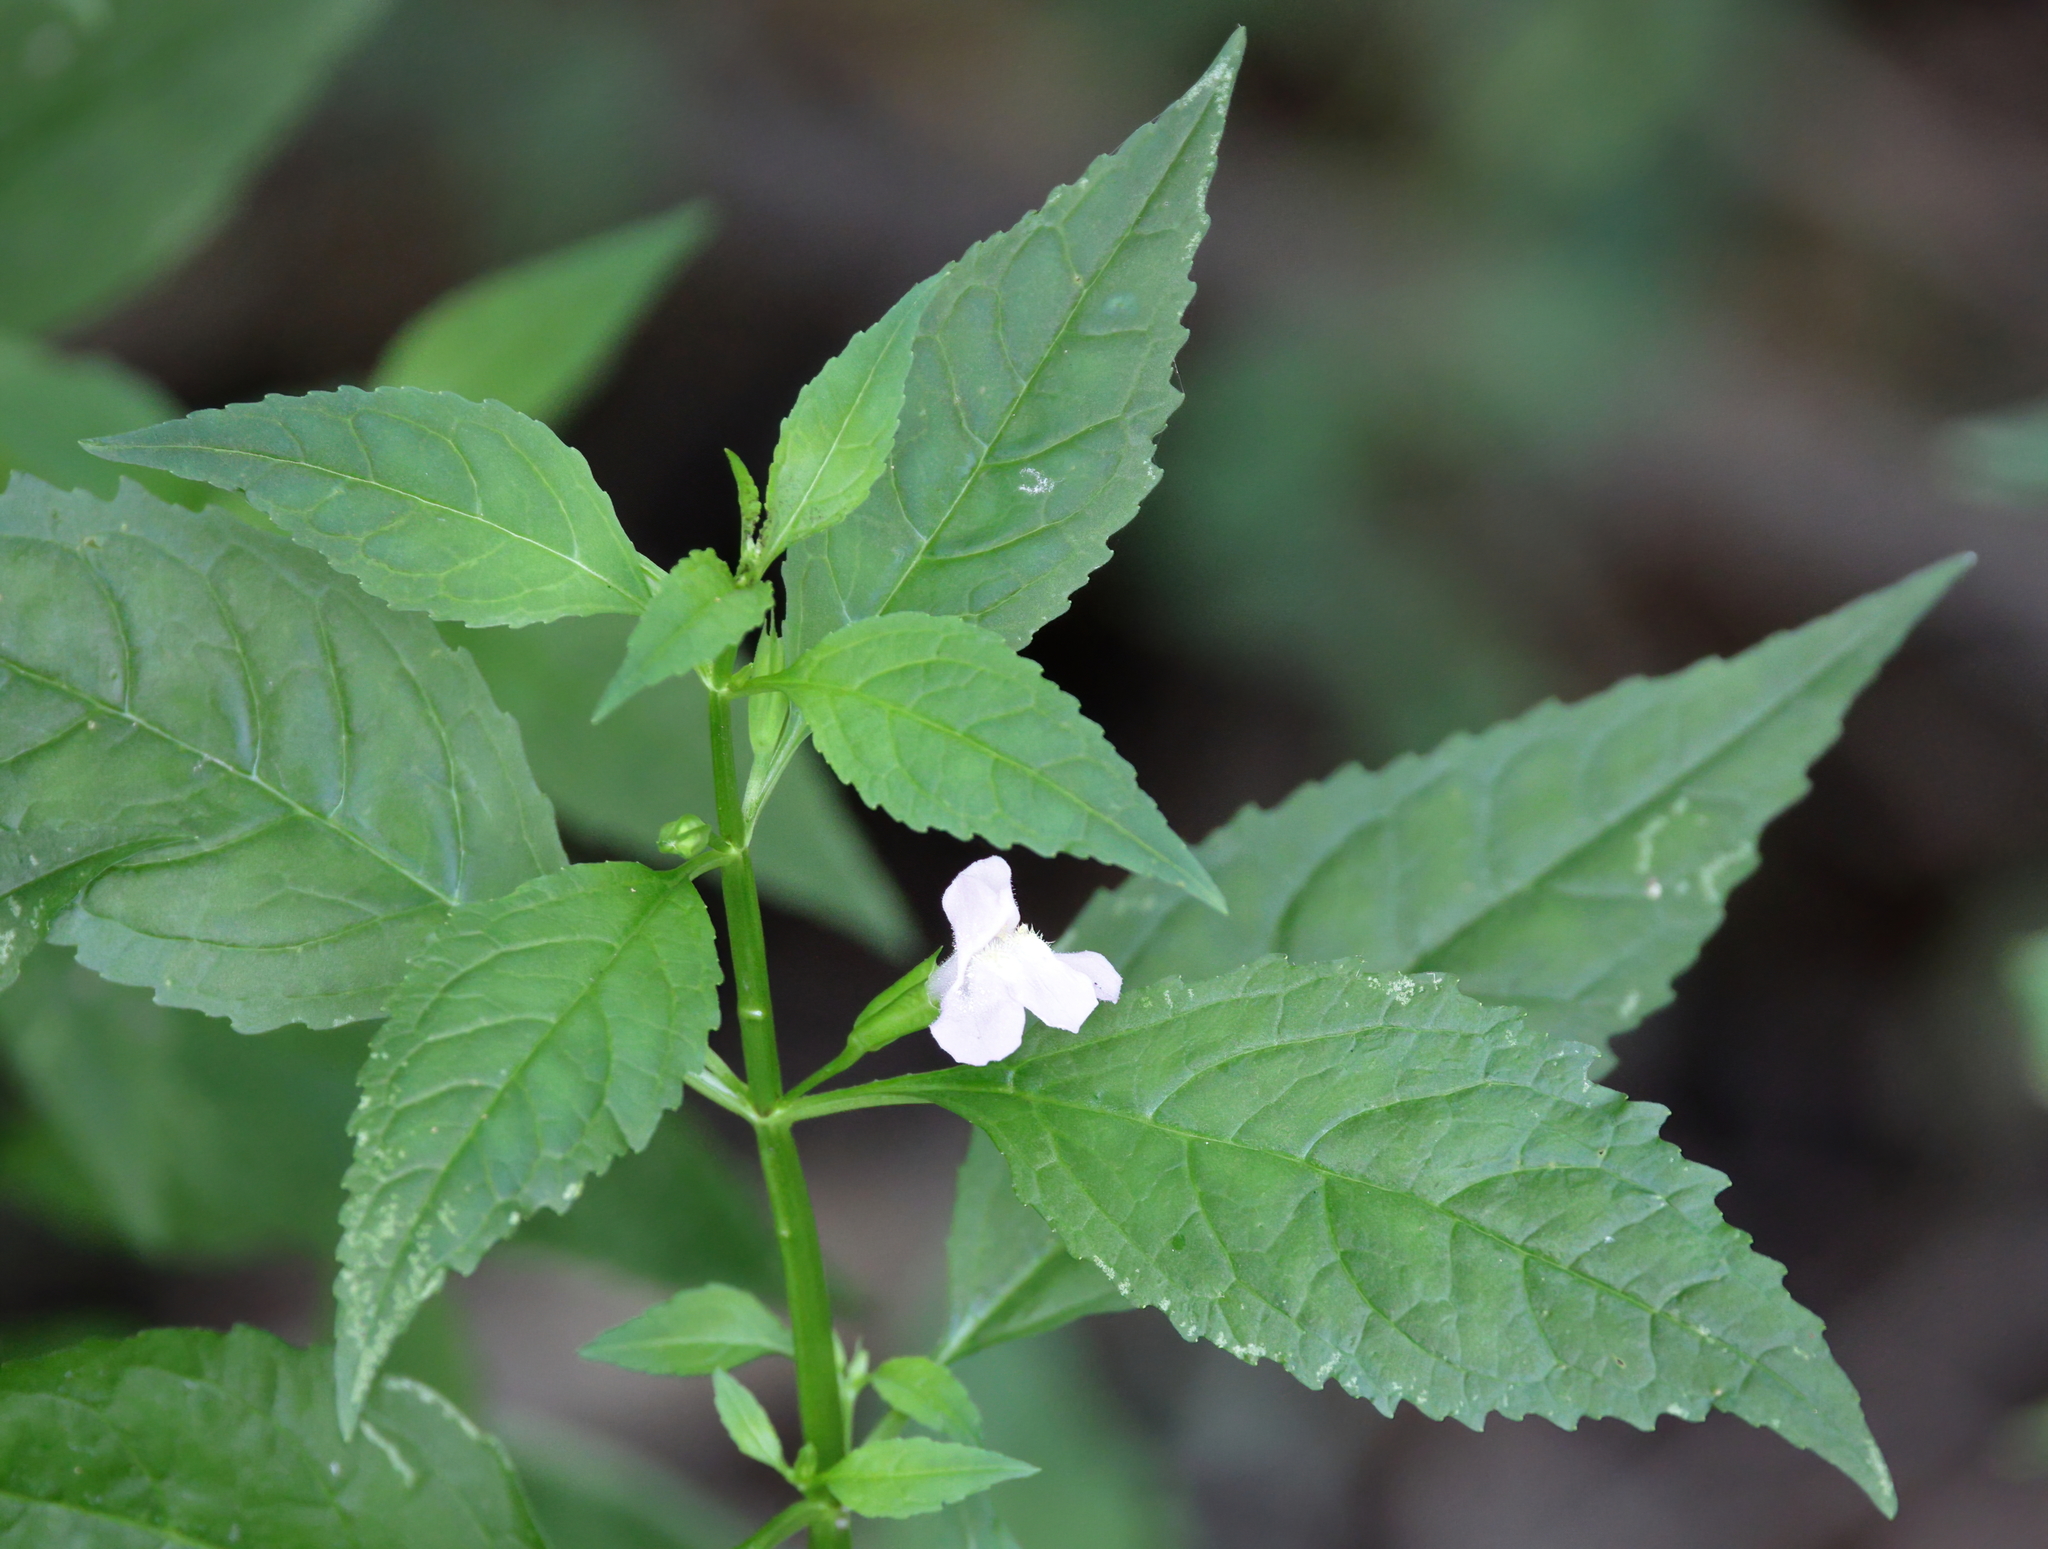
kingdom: Plantae
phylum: Tracheophyta
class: Magnoliopsida
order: Lamiales
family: Phrymaceae
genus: Mimulus
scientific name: Mimulus alatus
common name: Sharp-wing monkey-flower
